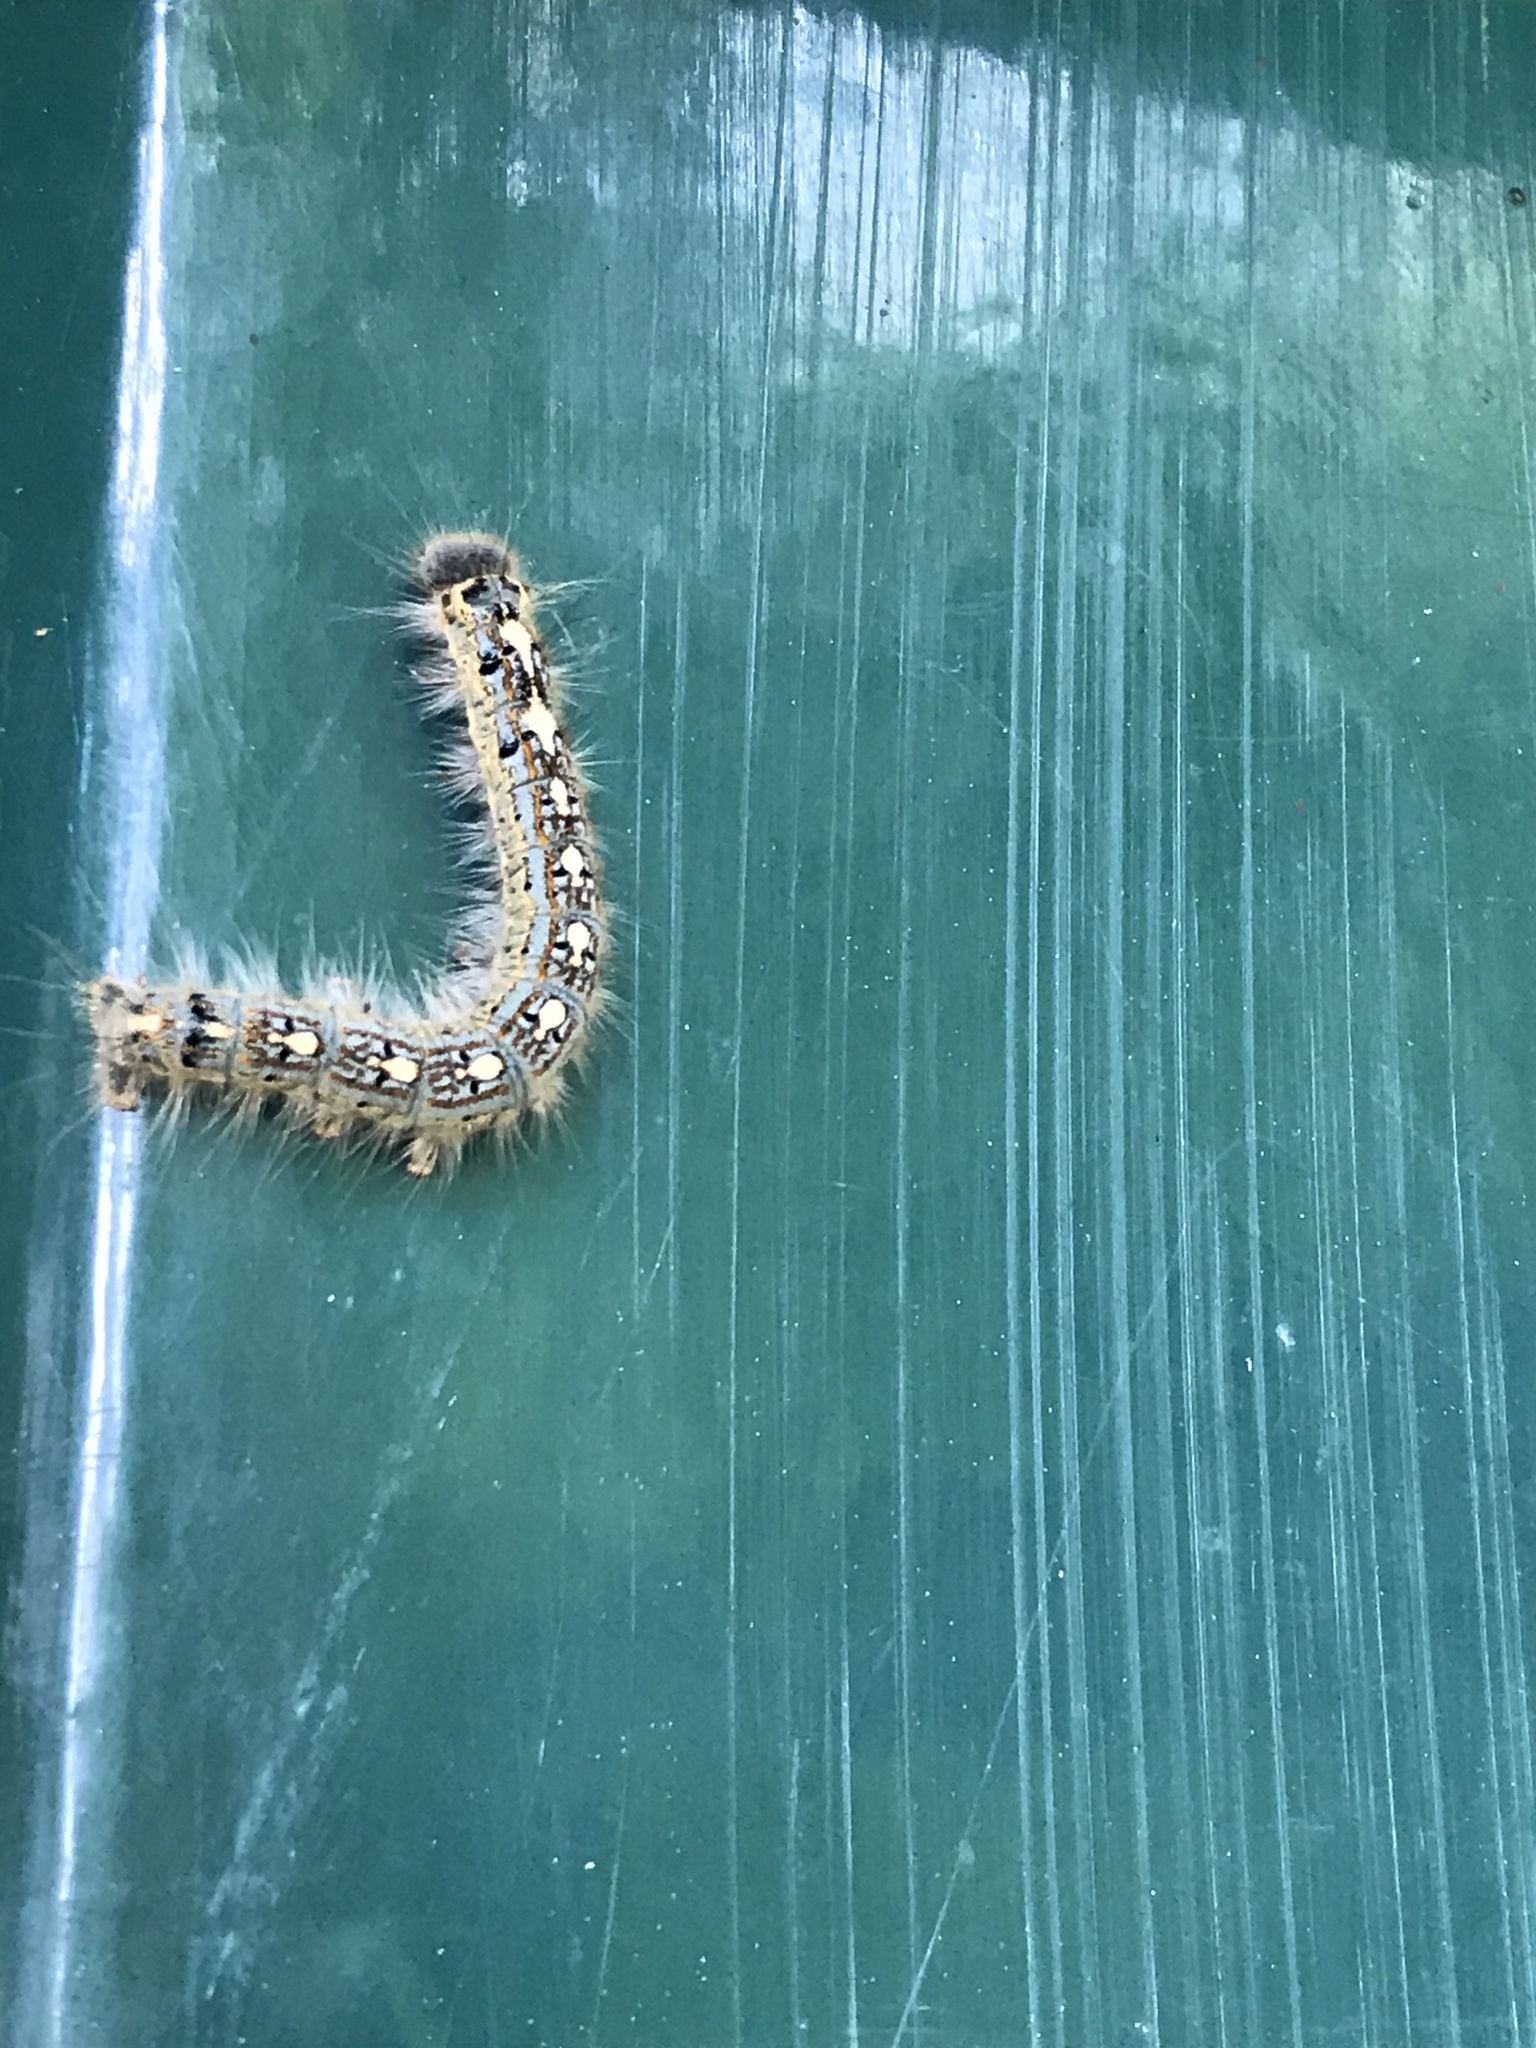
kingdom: Animalia
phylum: Arthropoda
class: Insecta
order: Lepidoptera
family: Lasiocampidae
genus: Malacosoma
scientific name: Malacosoma disstria
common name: Forest tent caterpillar
